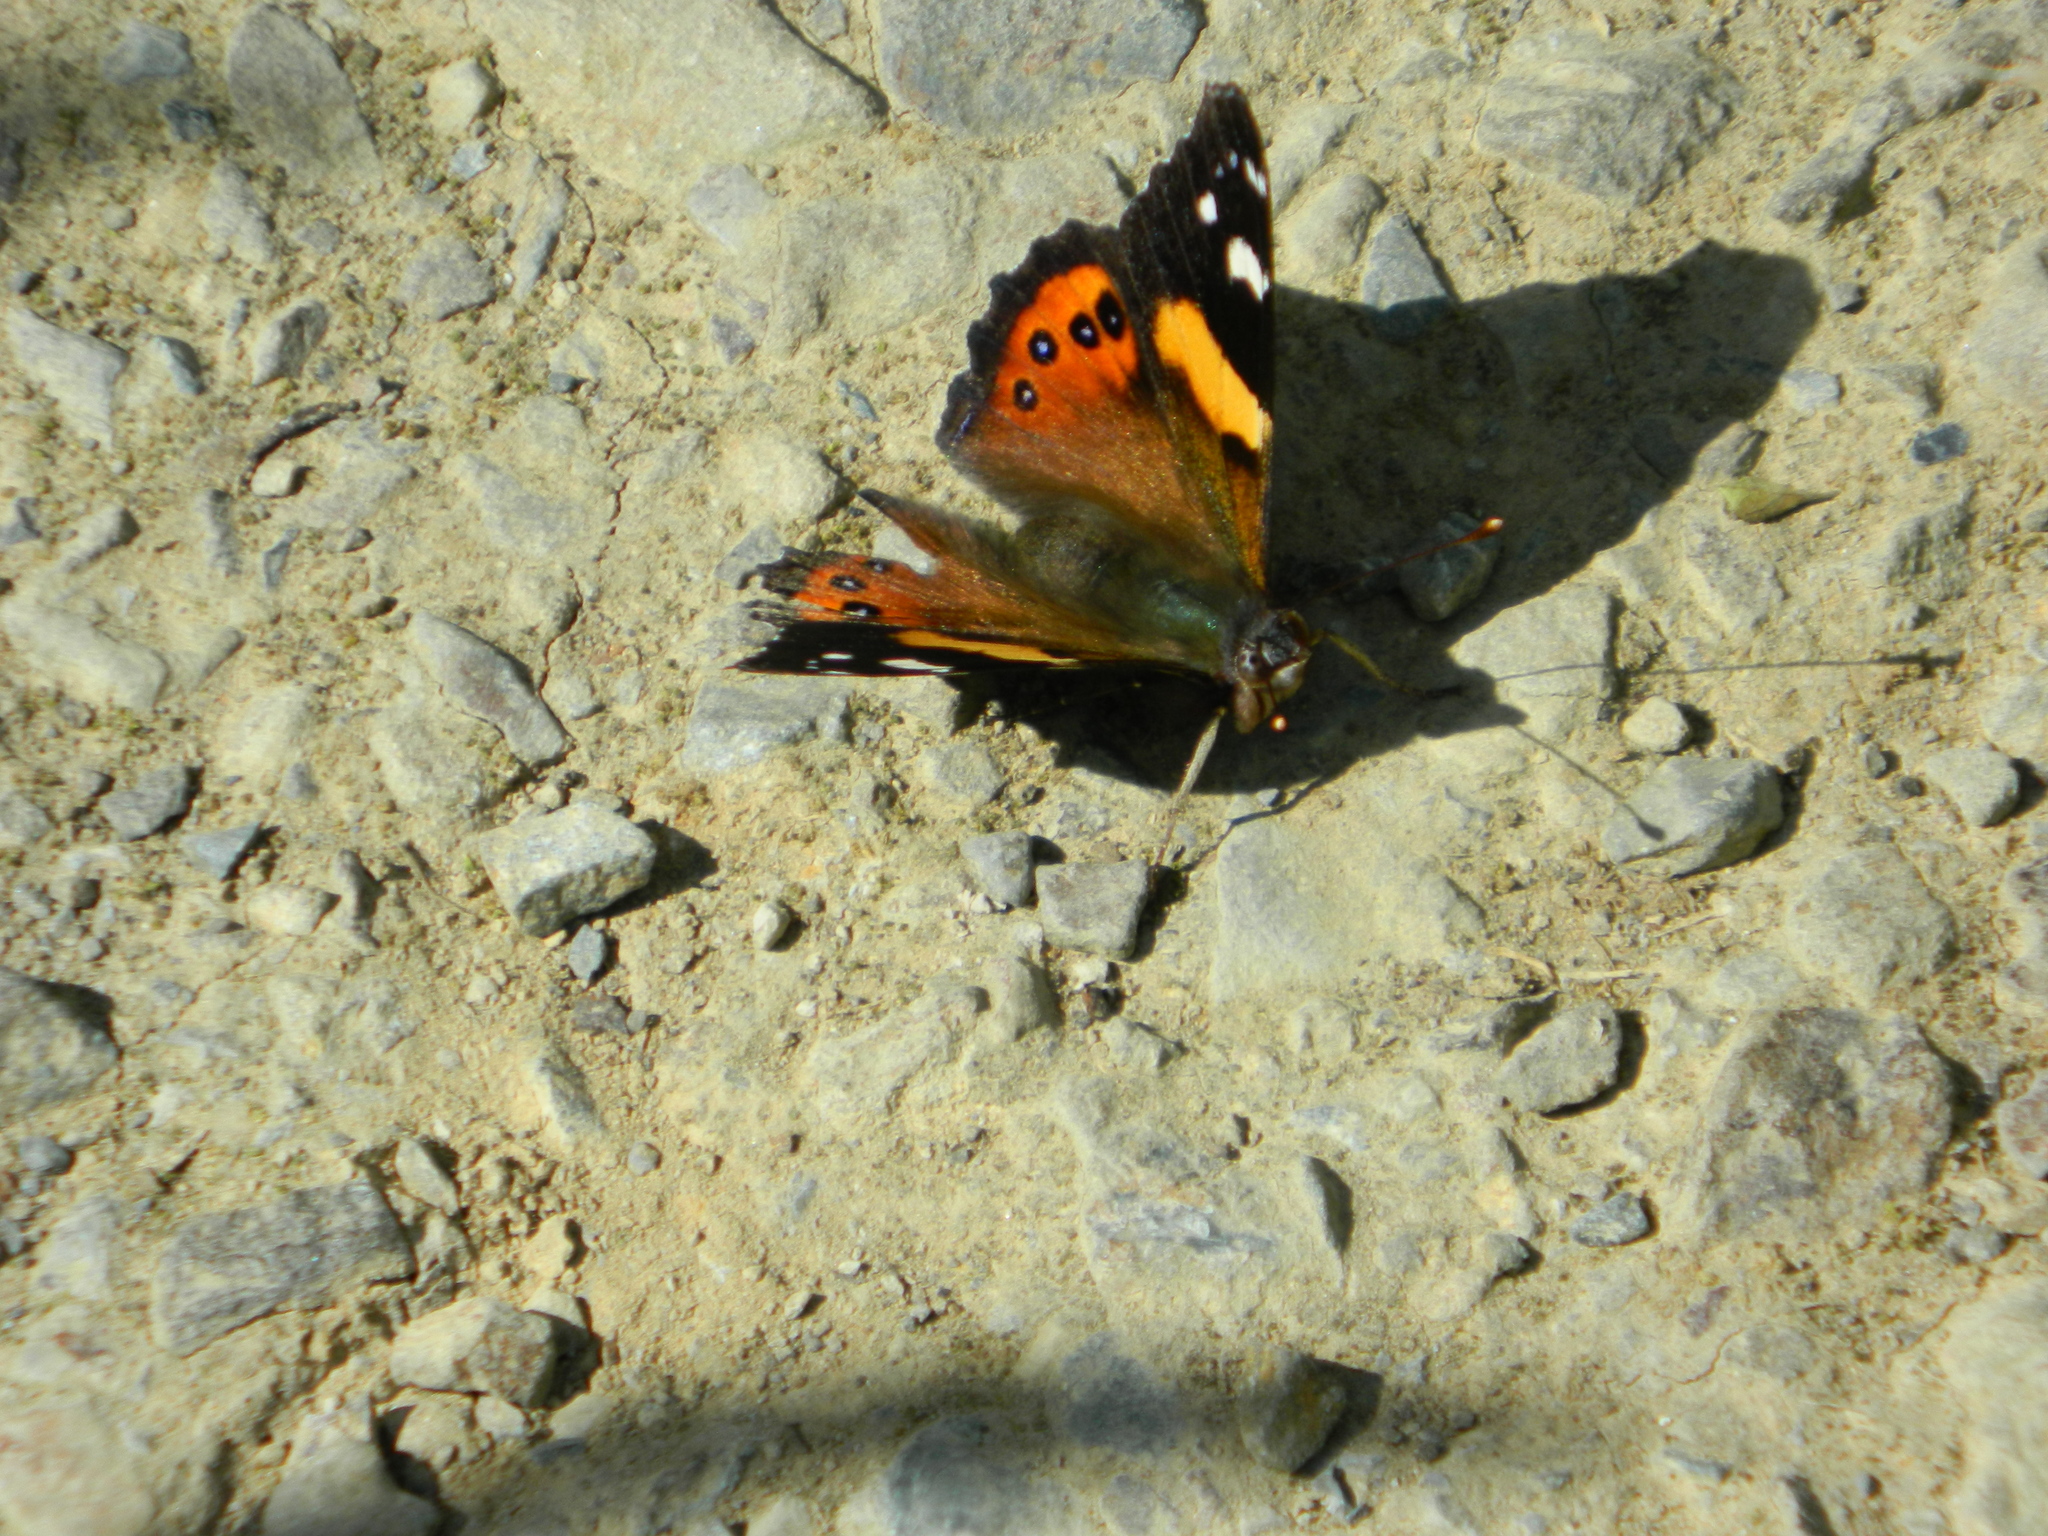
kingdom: Animalia
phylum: Arthropoda
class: Insecta
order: Lepidoptera
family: Nymphalidae
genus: Vanessa
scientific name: Vanessa
